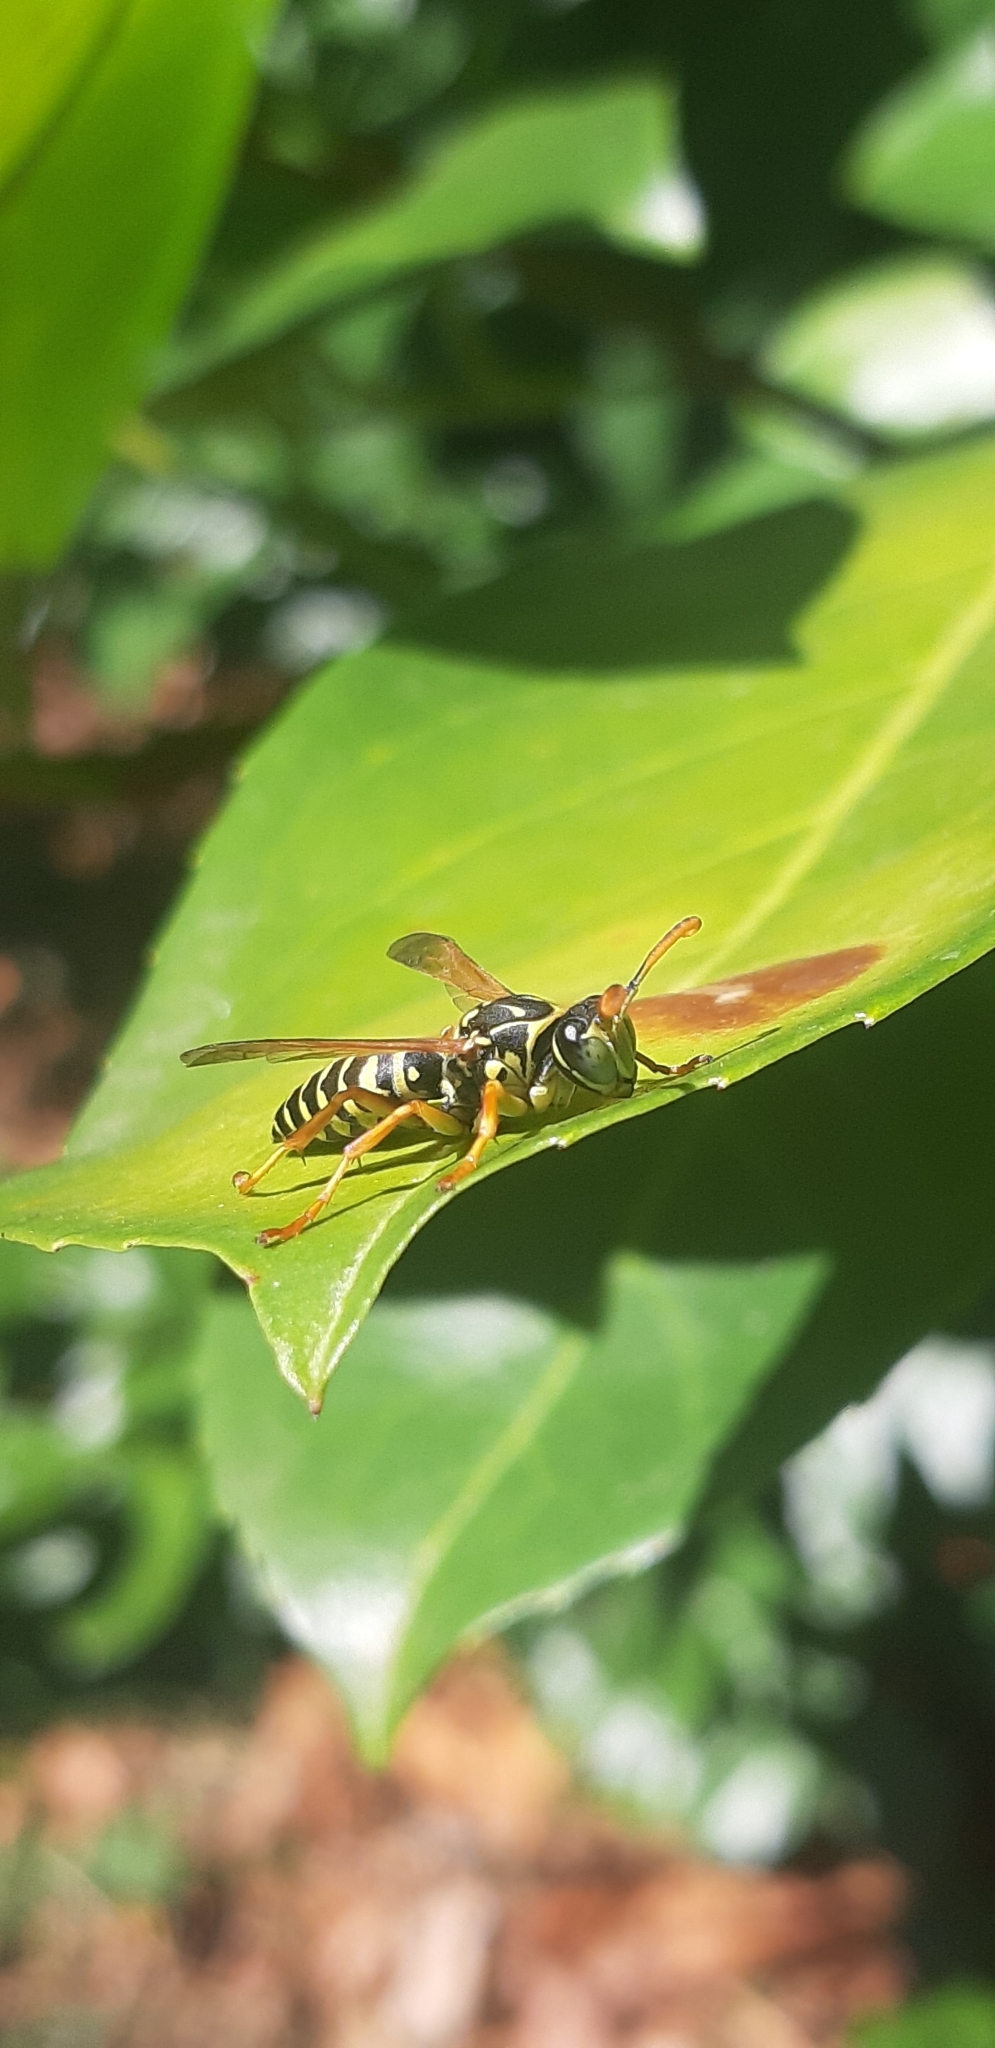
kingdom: Animalia
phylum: Arthropoda
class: Insecta
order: Hymenoptera
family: Eumenidae
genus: Polistes
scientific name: Polistes associus
